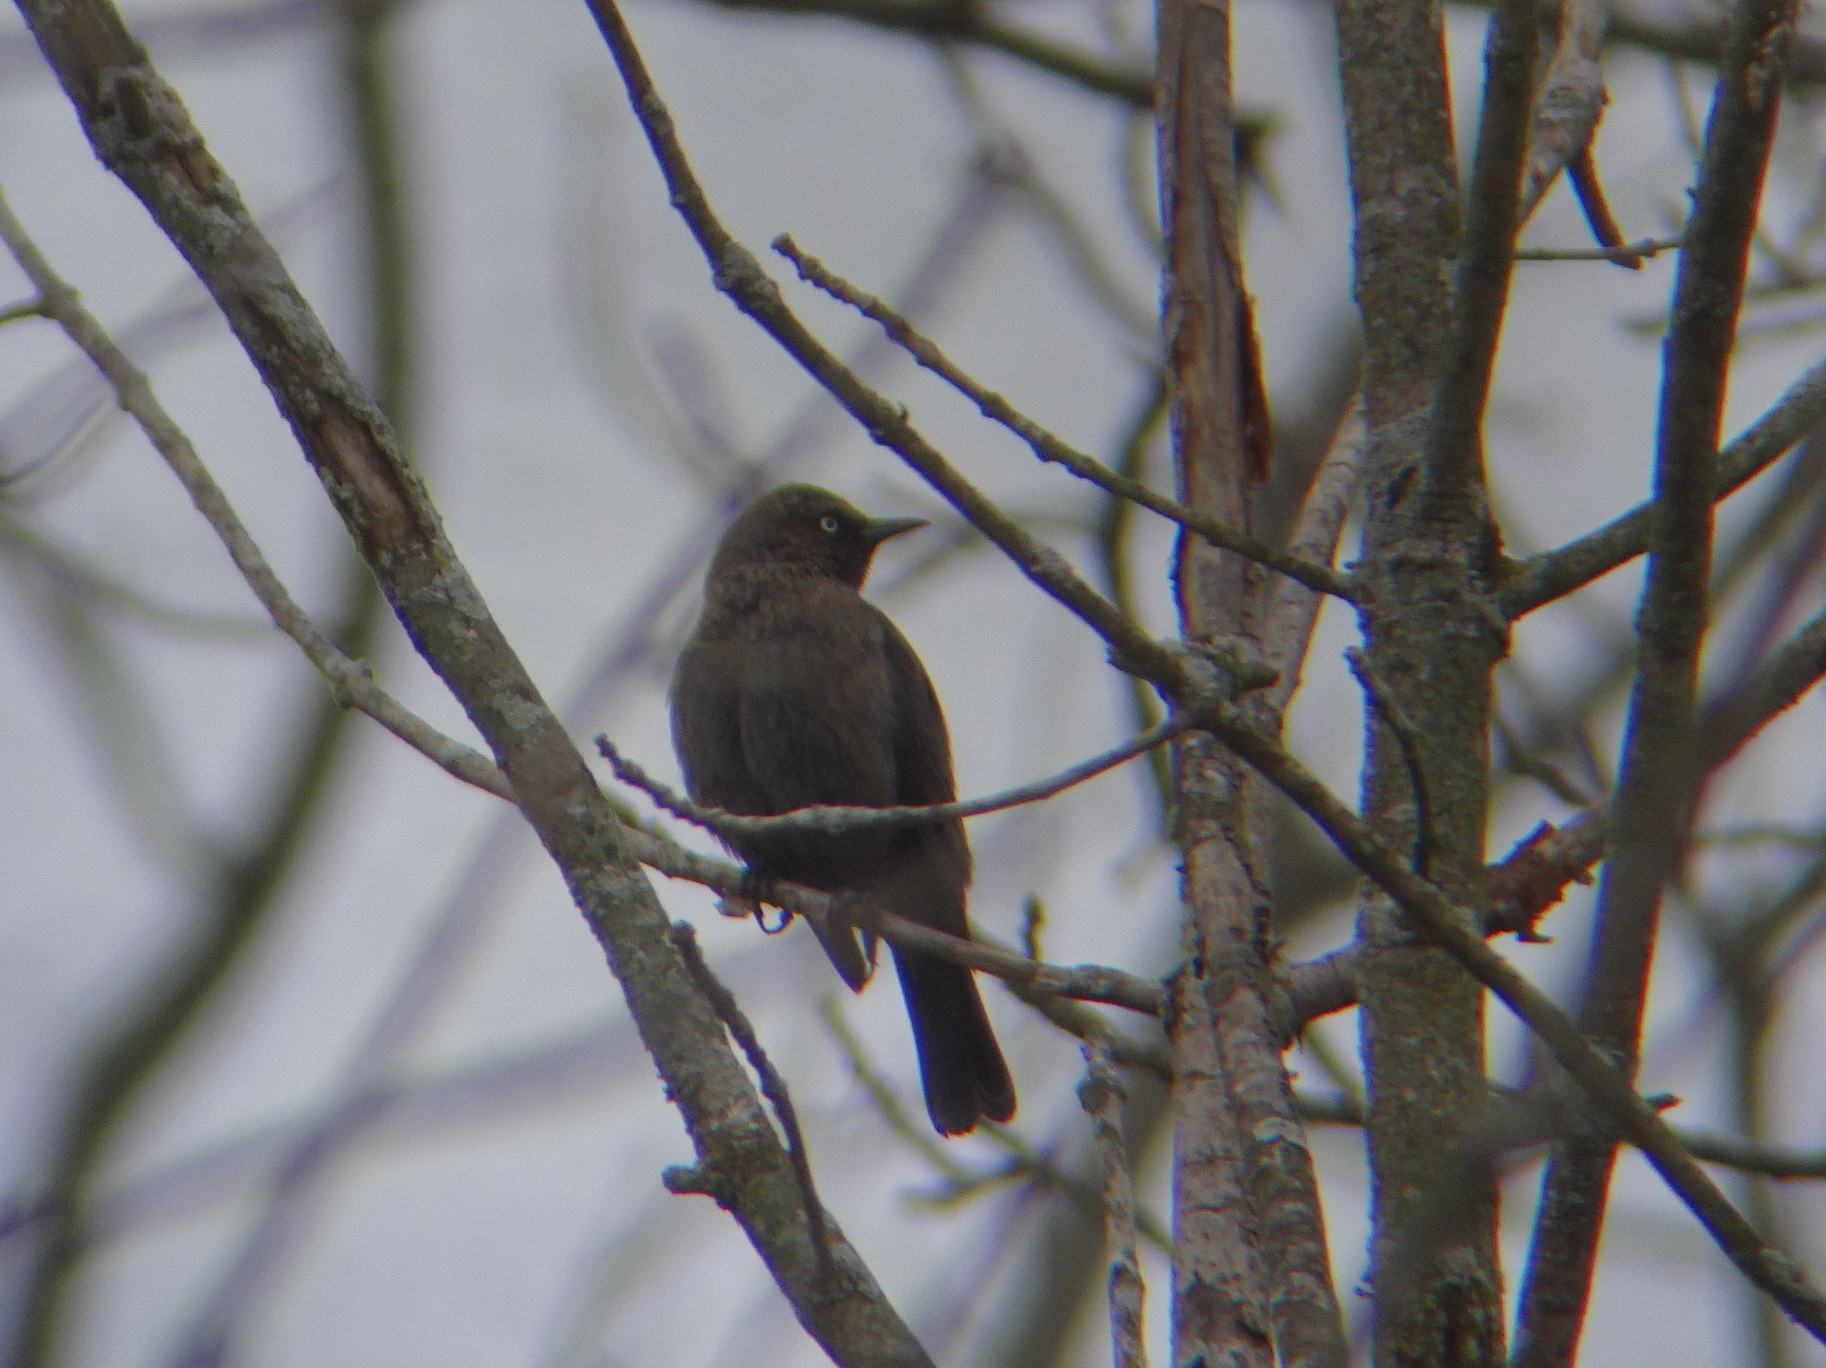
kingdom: Animalia
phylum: Chordata
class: Aves
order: Passeriformes
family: Icteridae
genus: Euphagus
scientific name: Euphagus carolinus
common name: Rusty blackbird
